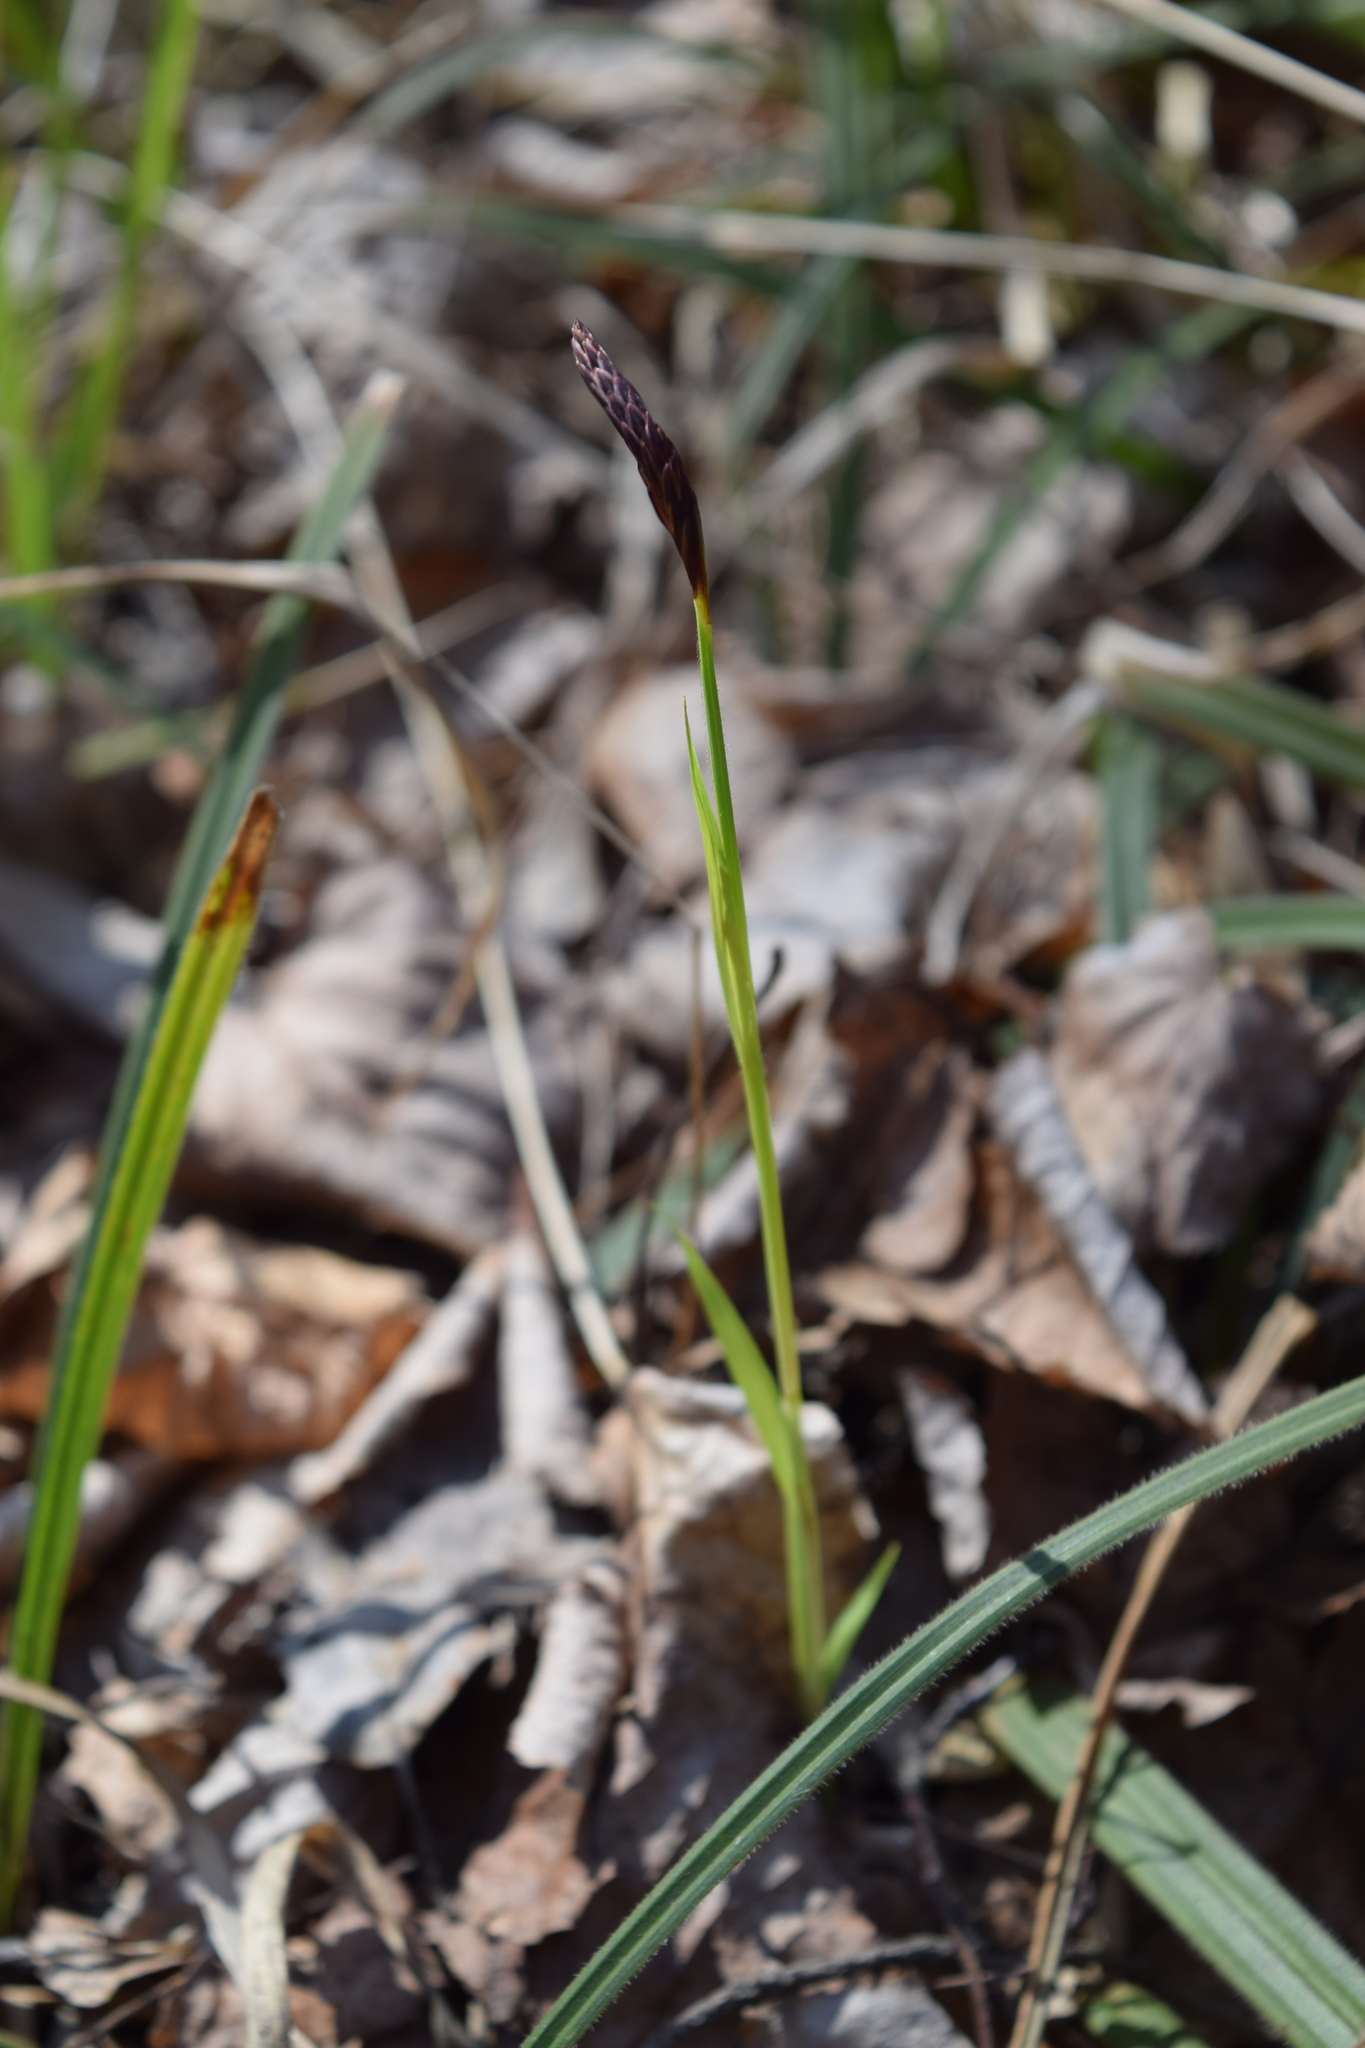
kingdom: Plantae
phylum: Tracheophyta
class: Liliopsida
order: Poales
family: Cyperaceae
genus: Carex
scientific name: Carex pilosa
